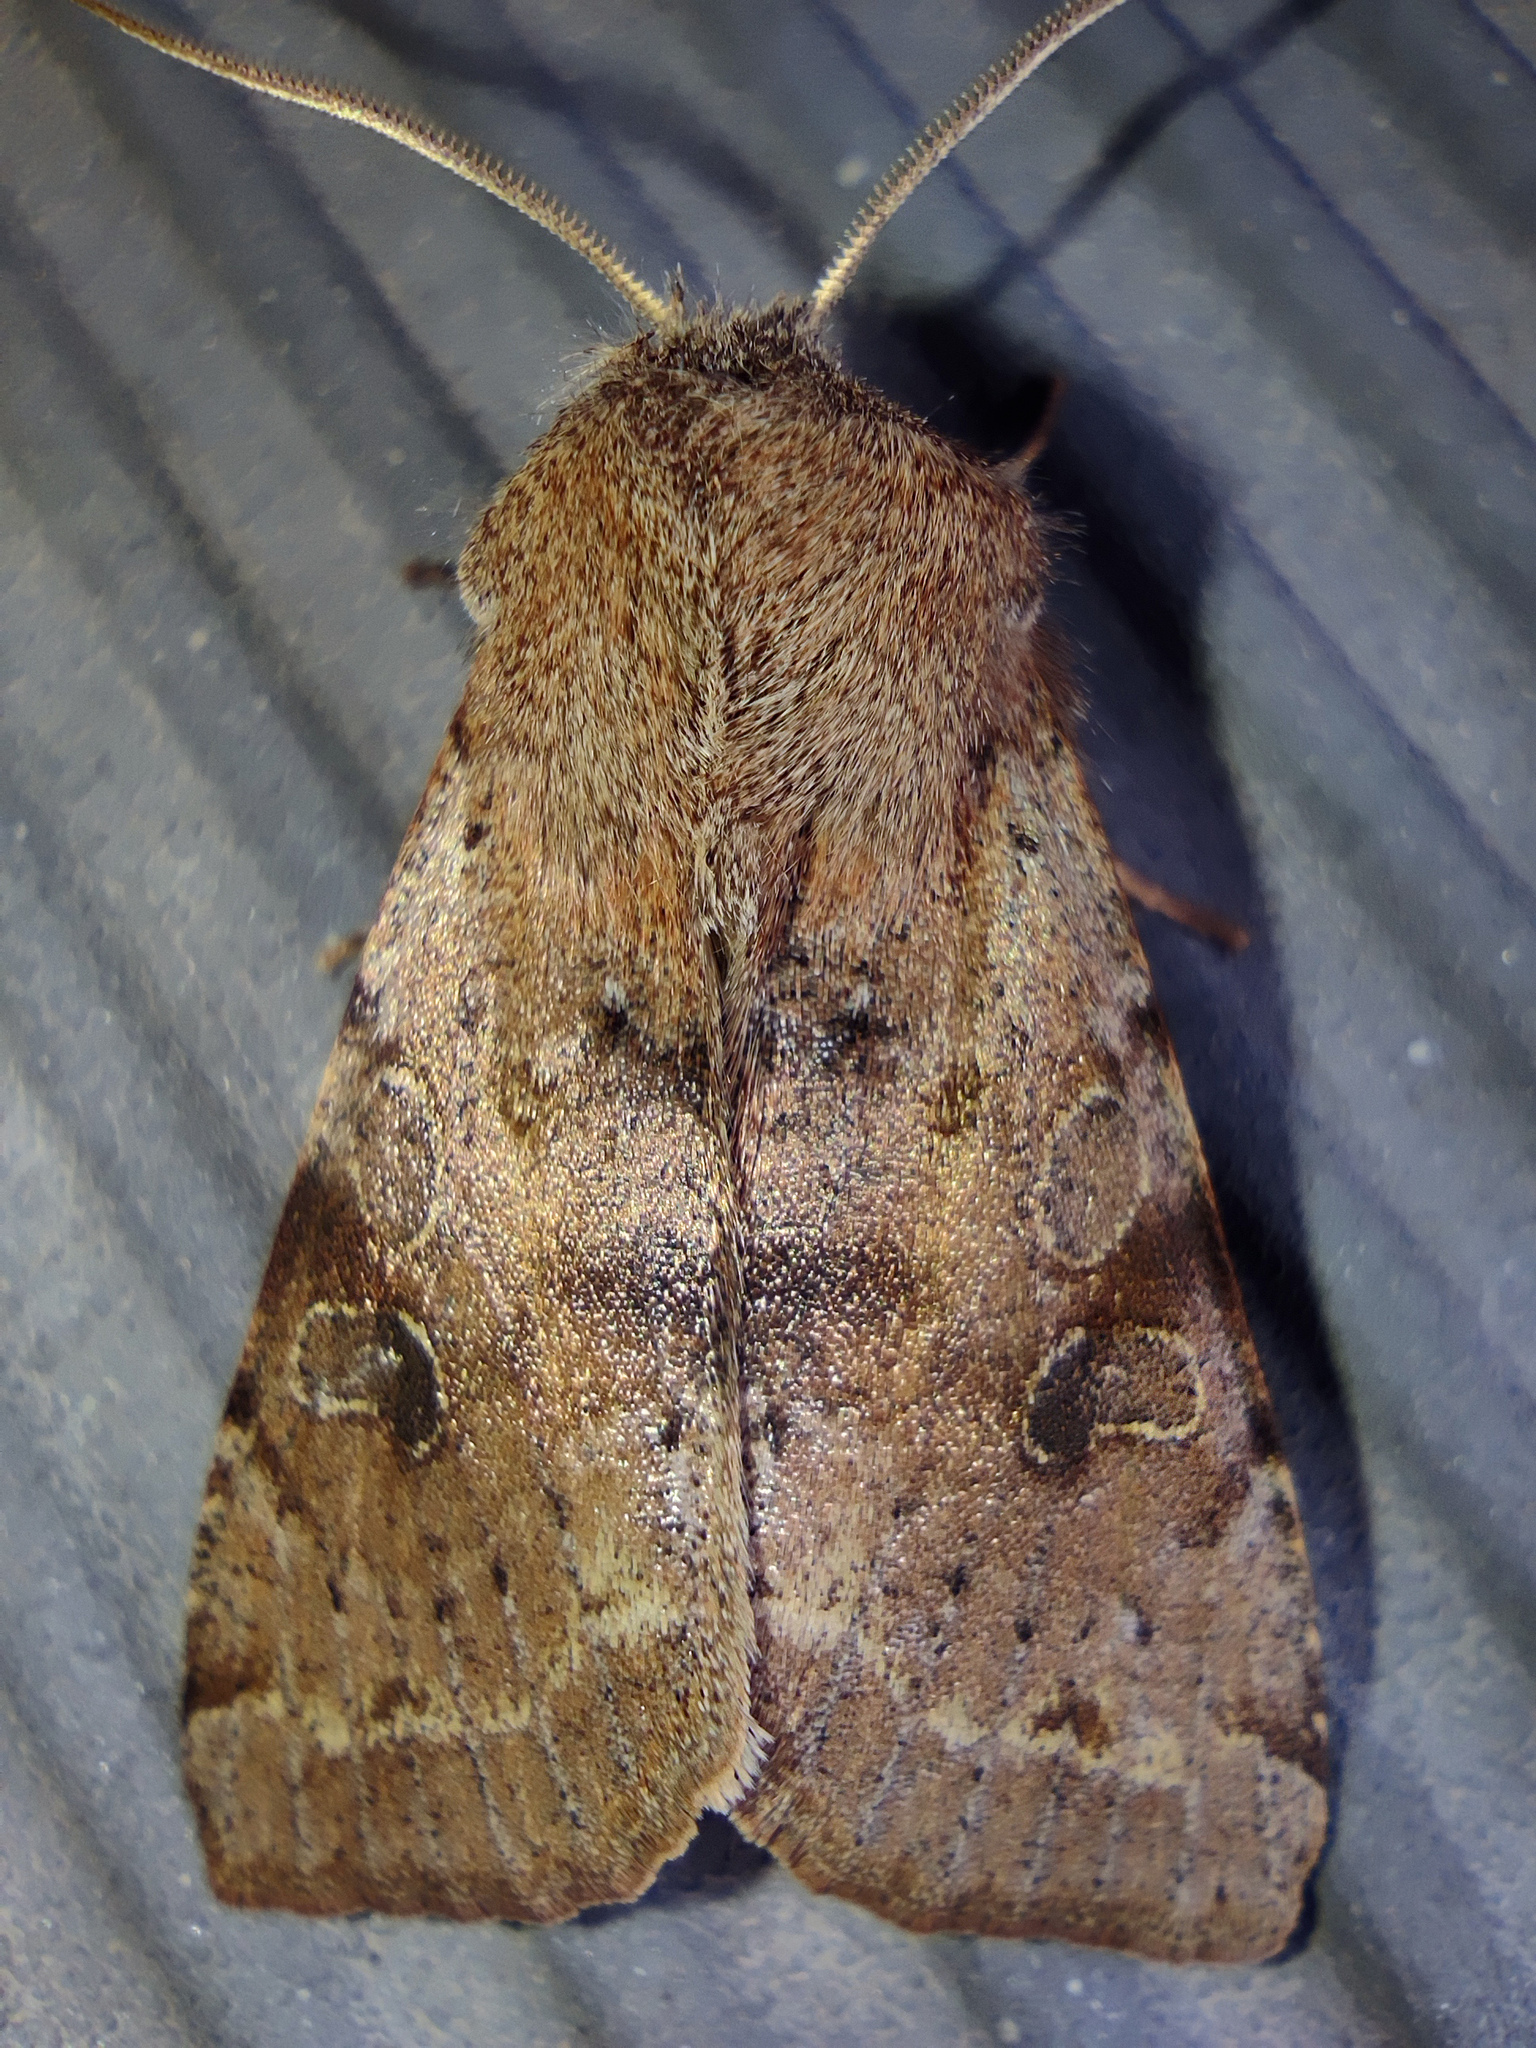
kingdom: Animalia
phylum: Arthropoda
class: Insecta
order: Lepidoptera
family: Noctuidae
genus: Orthosia
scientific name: Orthosia incerta
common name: Clouded drab
